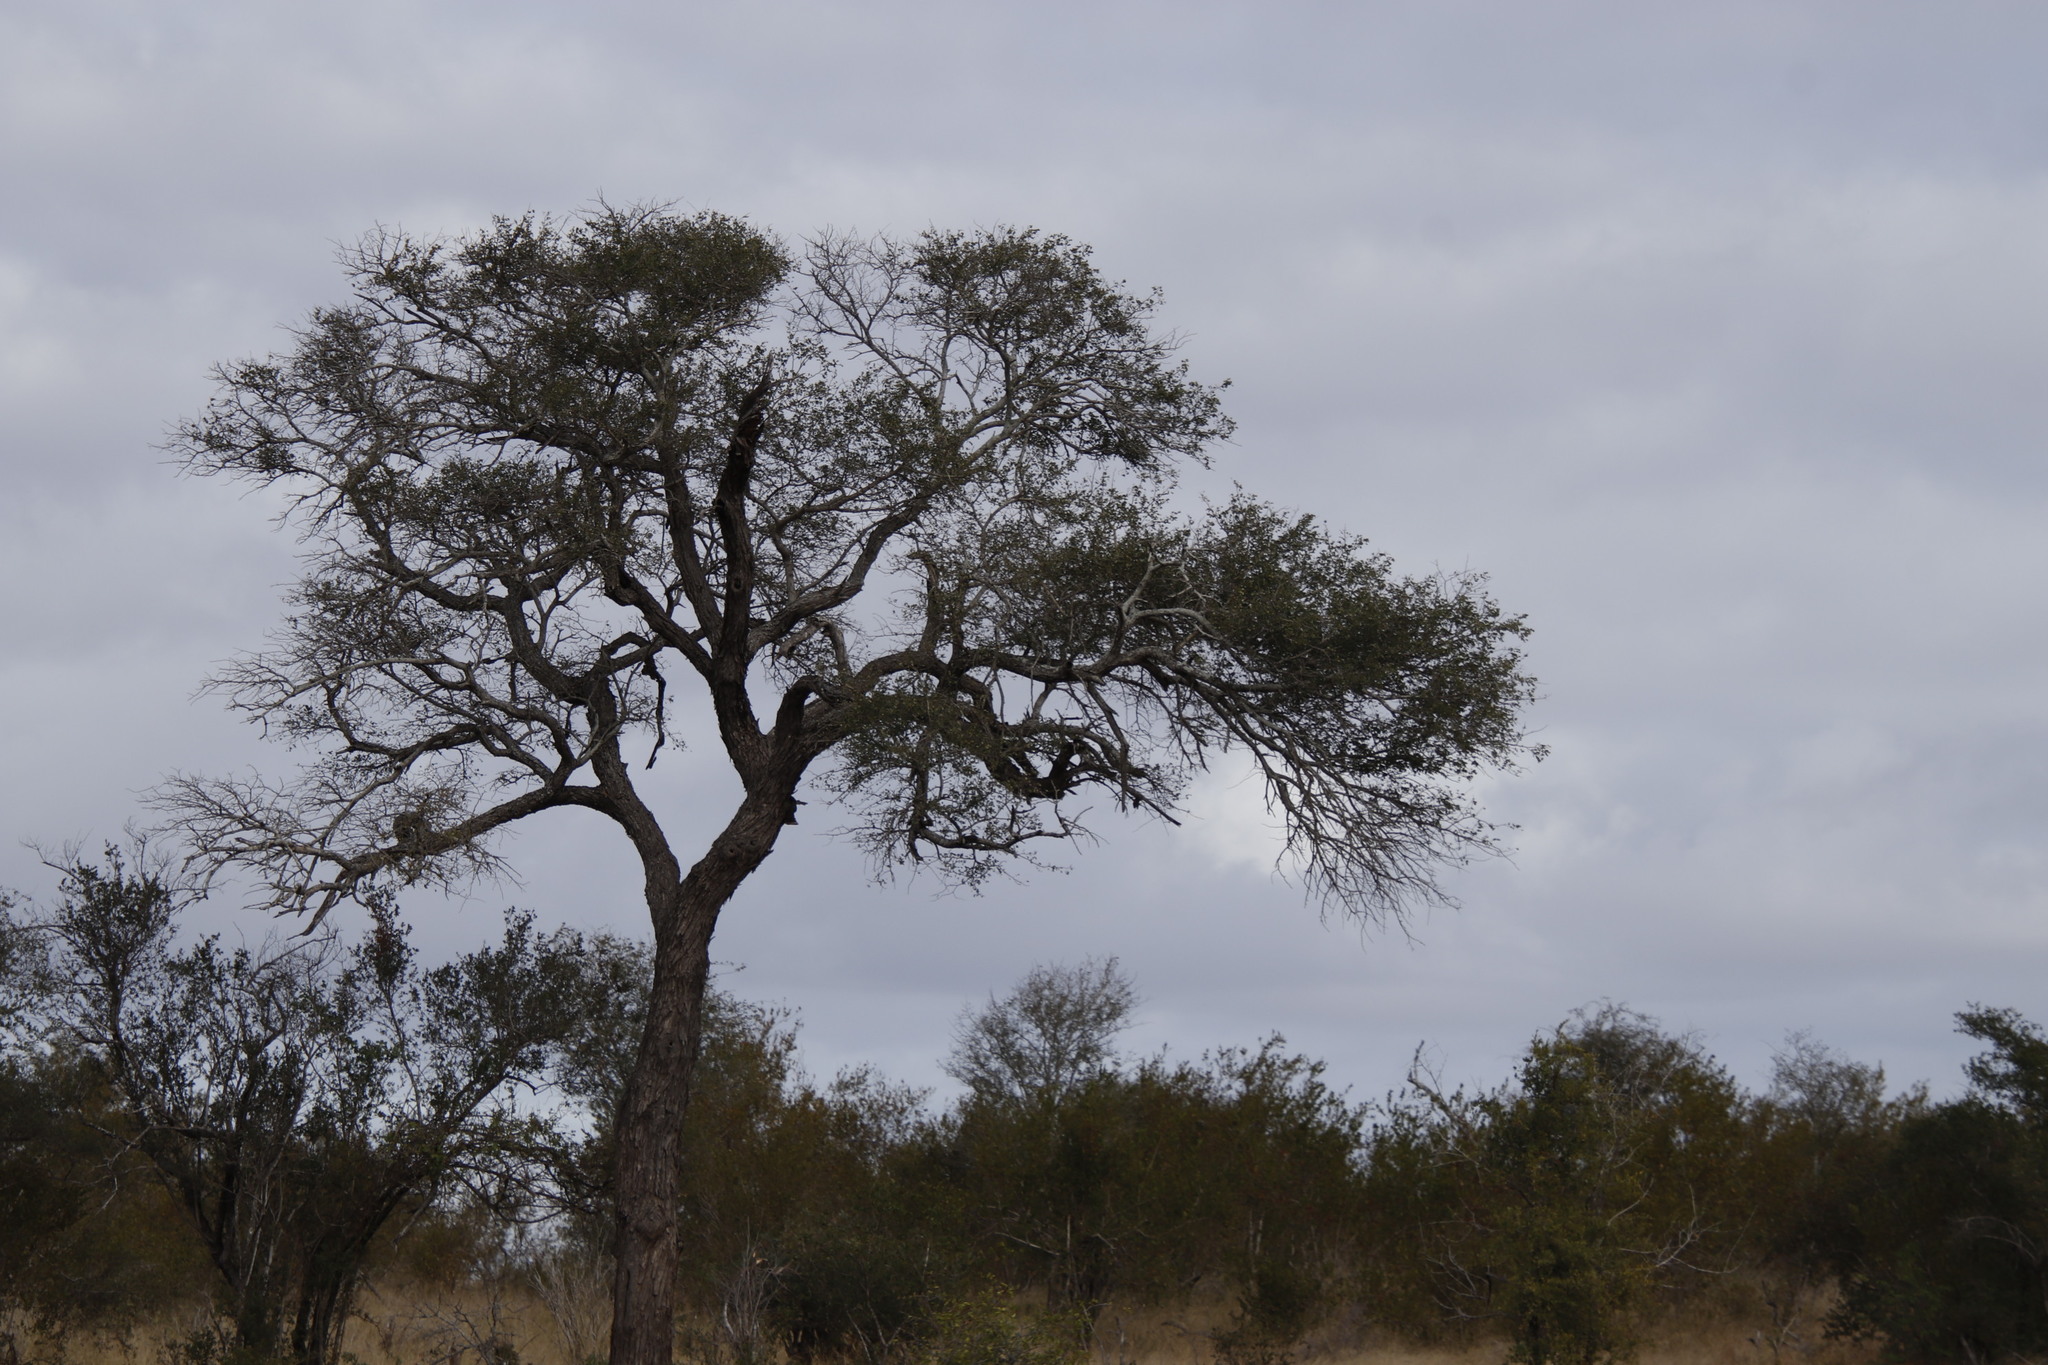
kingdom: Plantae
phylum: Tracheophyta
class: Magnoliopsida
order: Fabales
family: Fabaceae
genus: Senegalia
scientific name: Senegalia nigrescens
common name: Knobthorn
